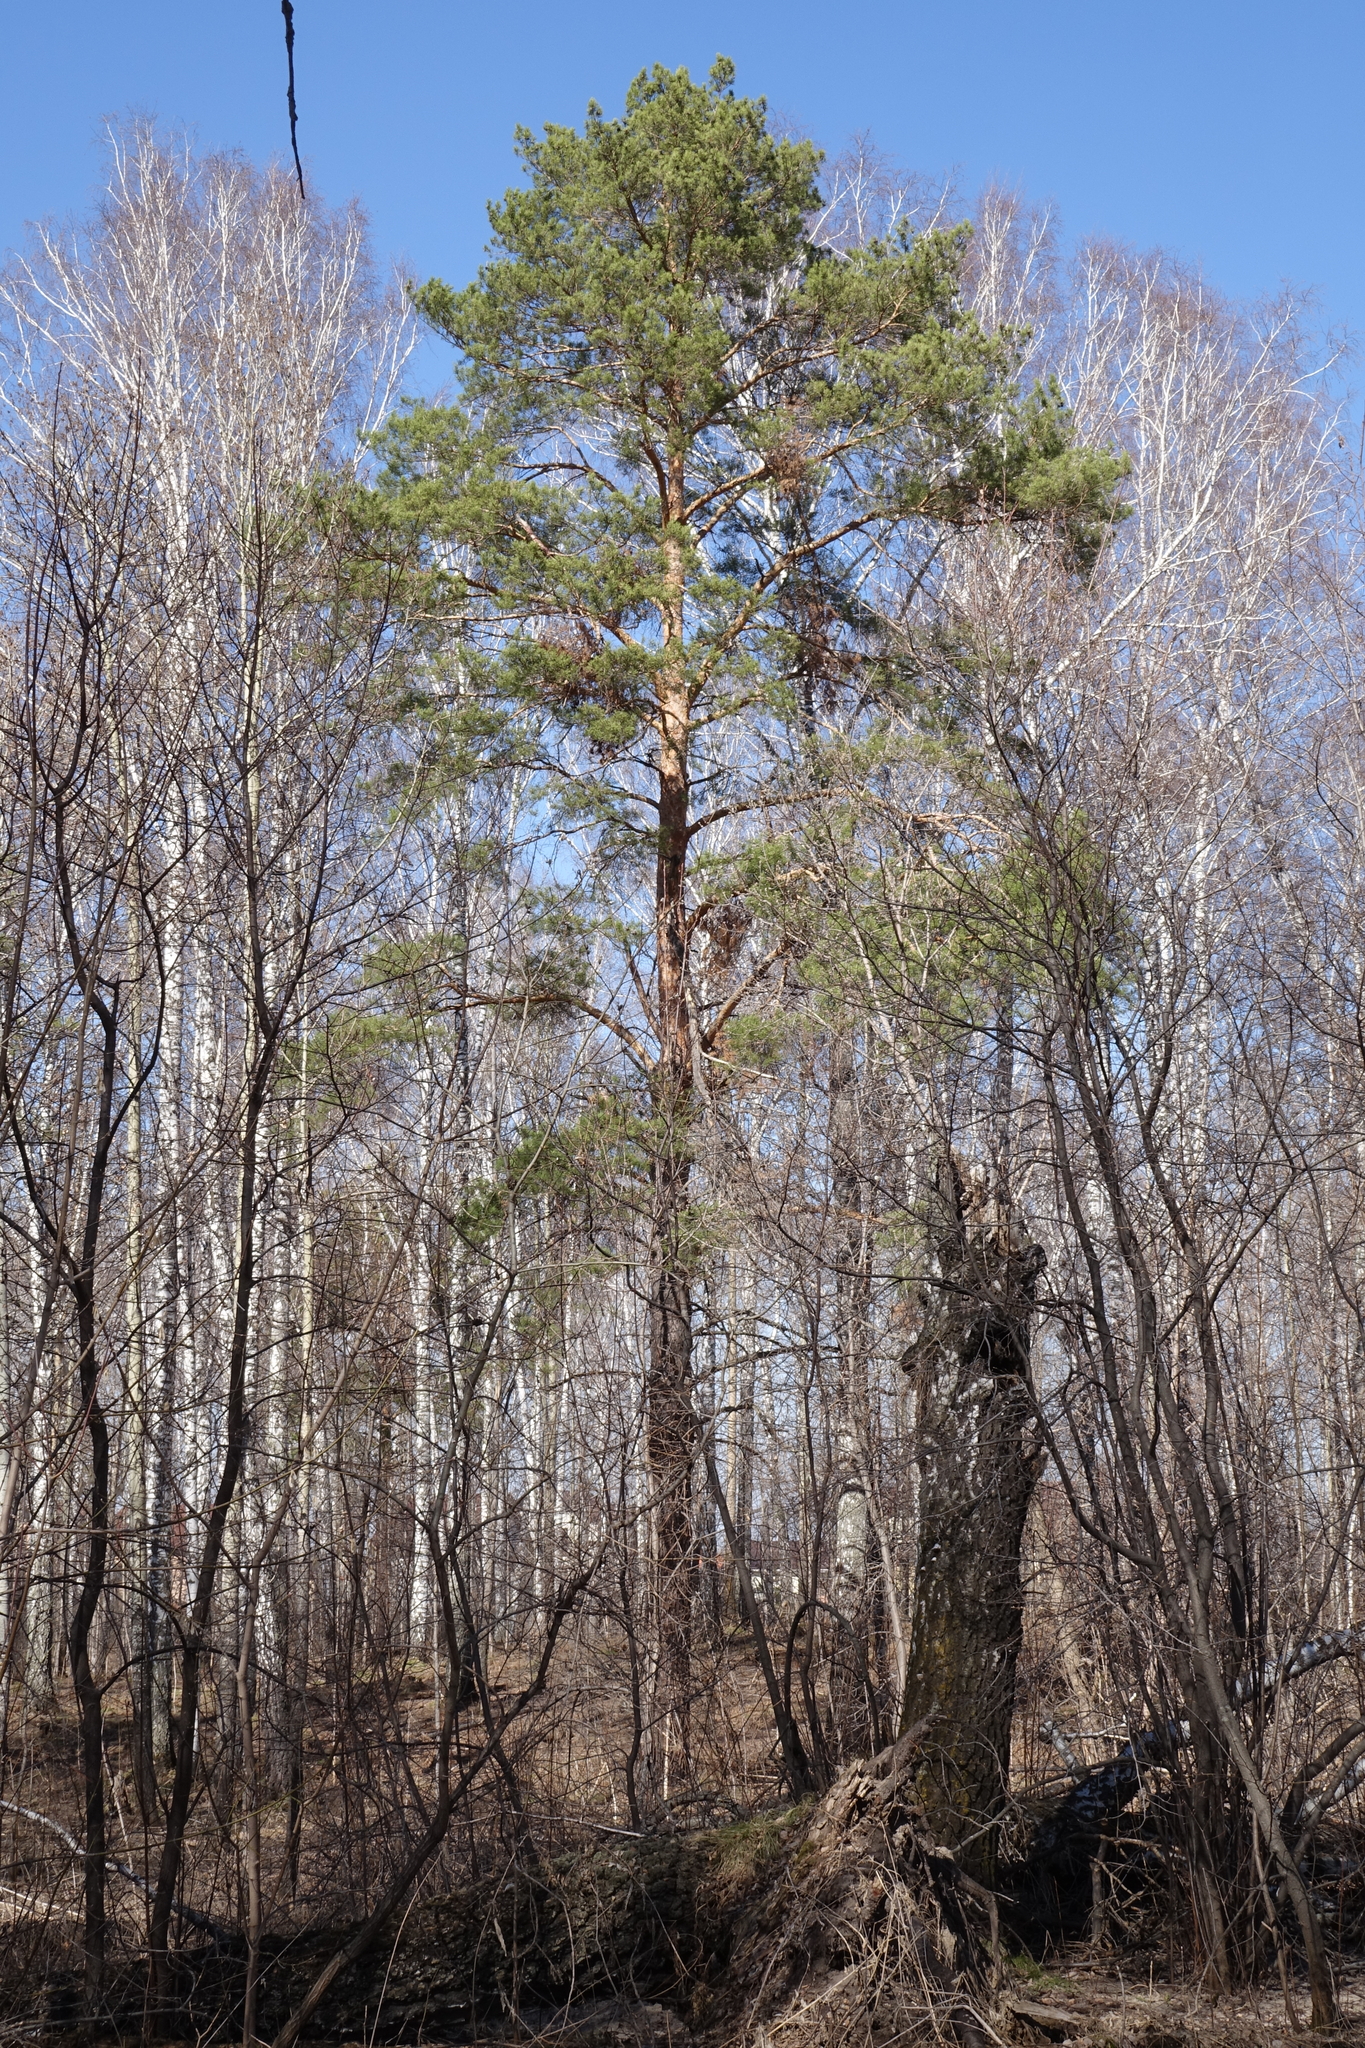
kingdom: Plantae
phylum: Tracheophyta
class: Pinopsida
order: Pinales
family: Pinaceae
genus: Pinus
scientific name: Pinus sylvestris
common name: Scots pine
